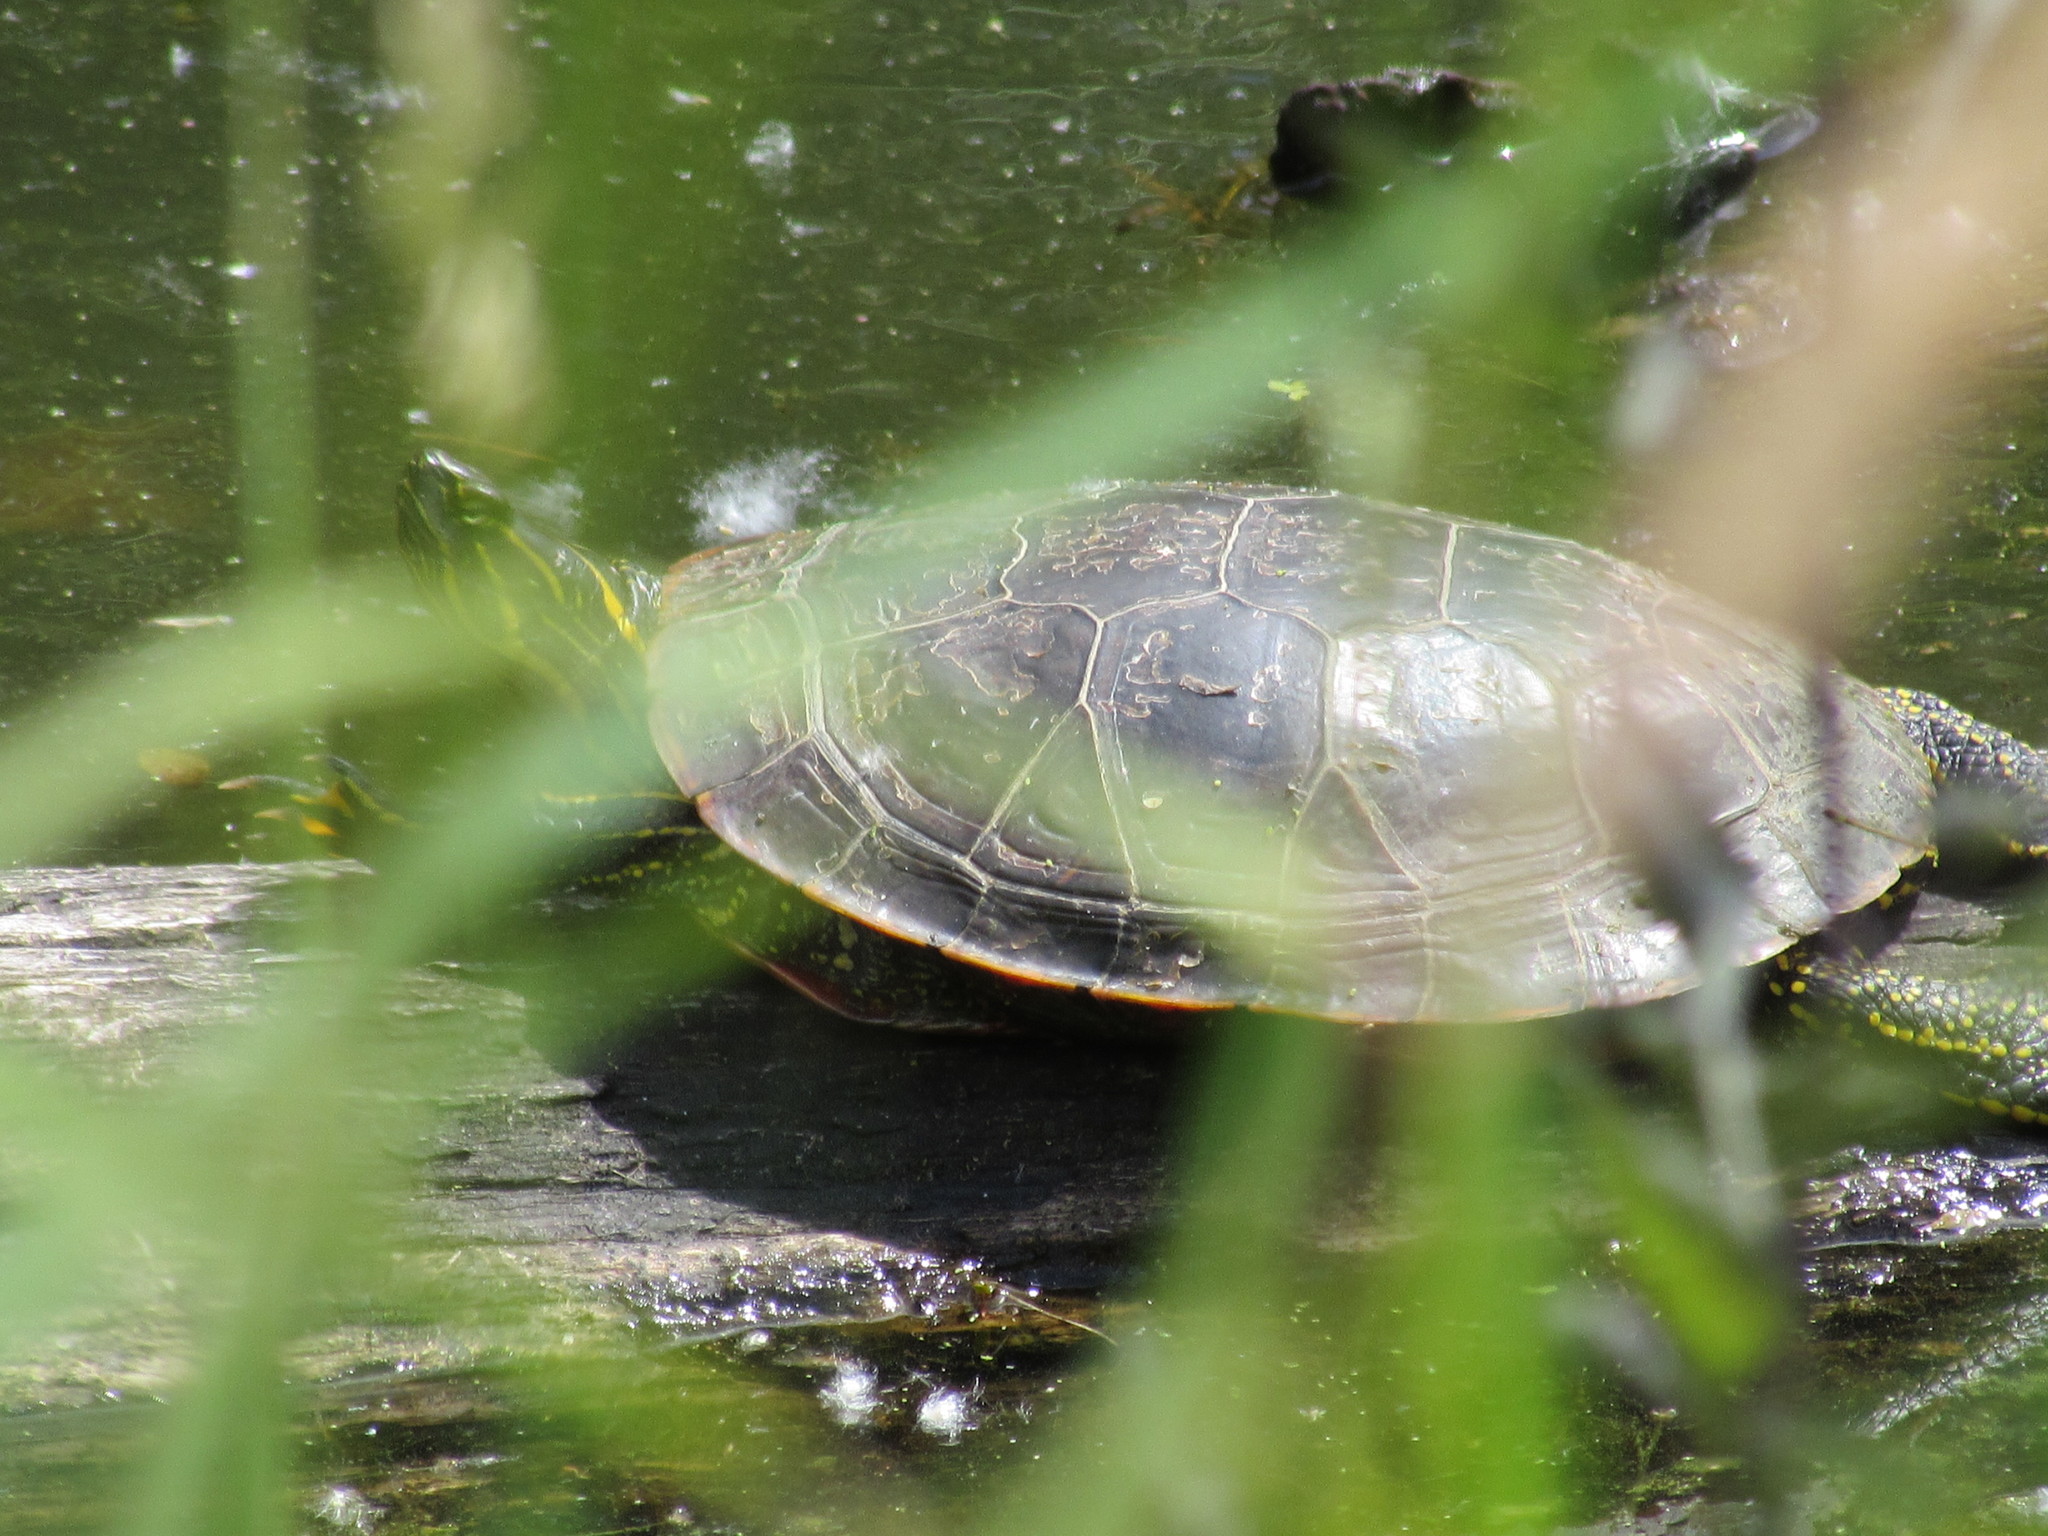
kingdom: Animalia
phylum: Chordata
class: Testudines
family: Emydidae
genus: Chrysemys
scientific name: Chrysemys picta
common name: Painted turtle
